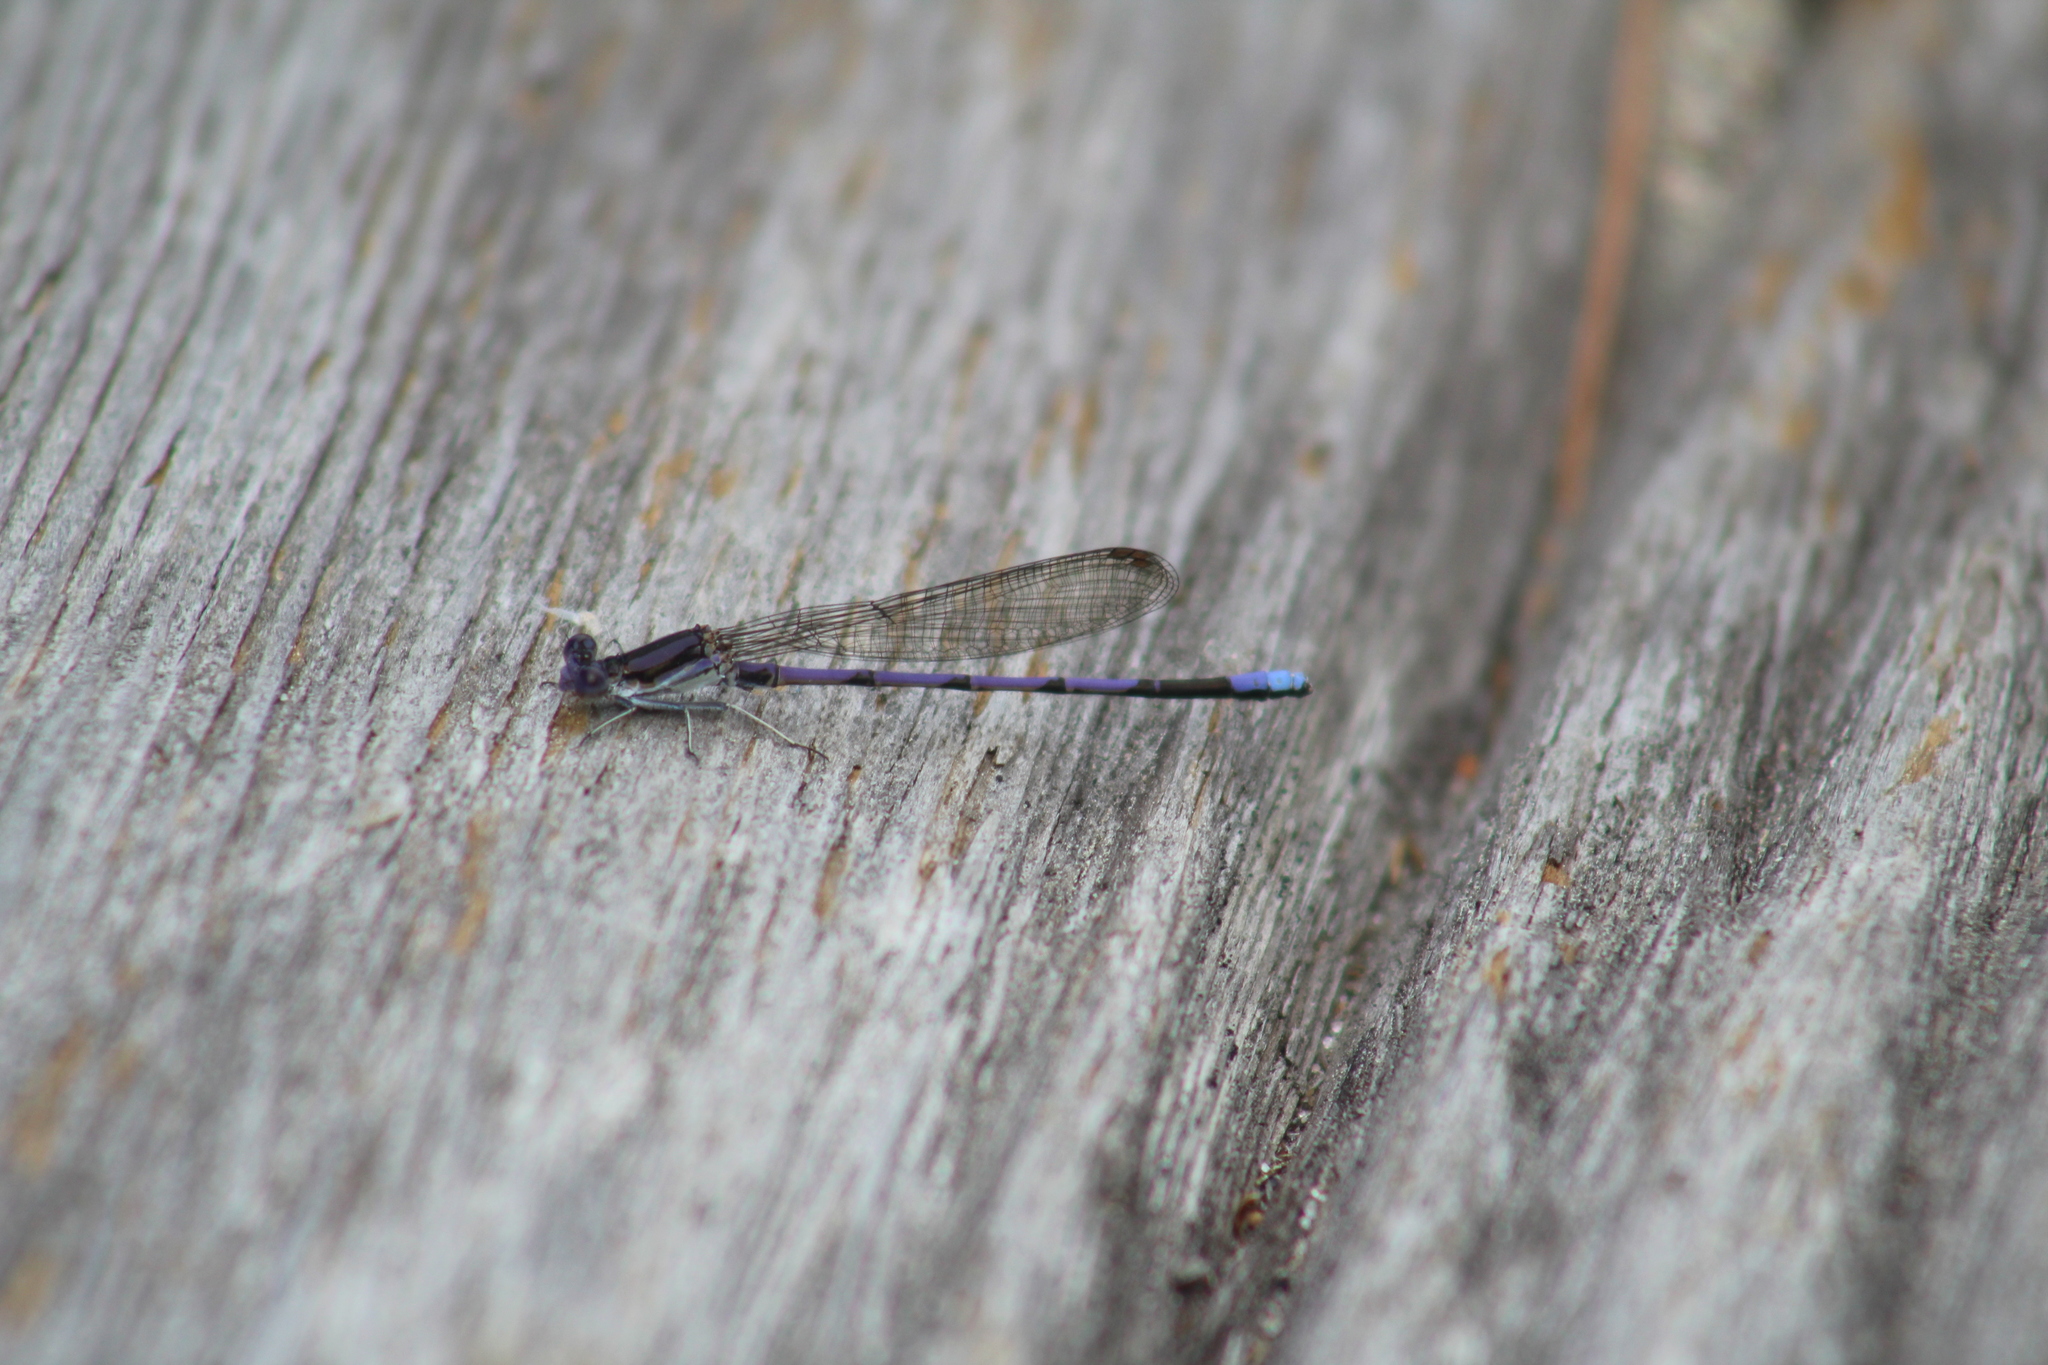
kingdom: Animalia
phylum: Arthropoda
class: Insecta
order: Odonata
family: Coenagrionidae
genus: Argia
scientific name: Argia fumipennis
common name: Variable dancer
